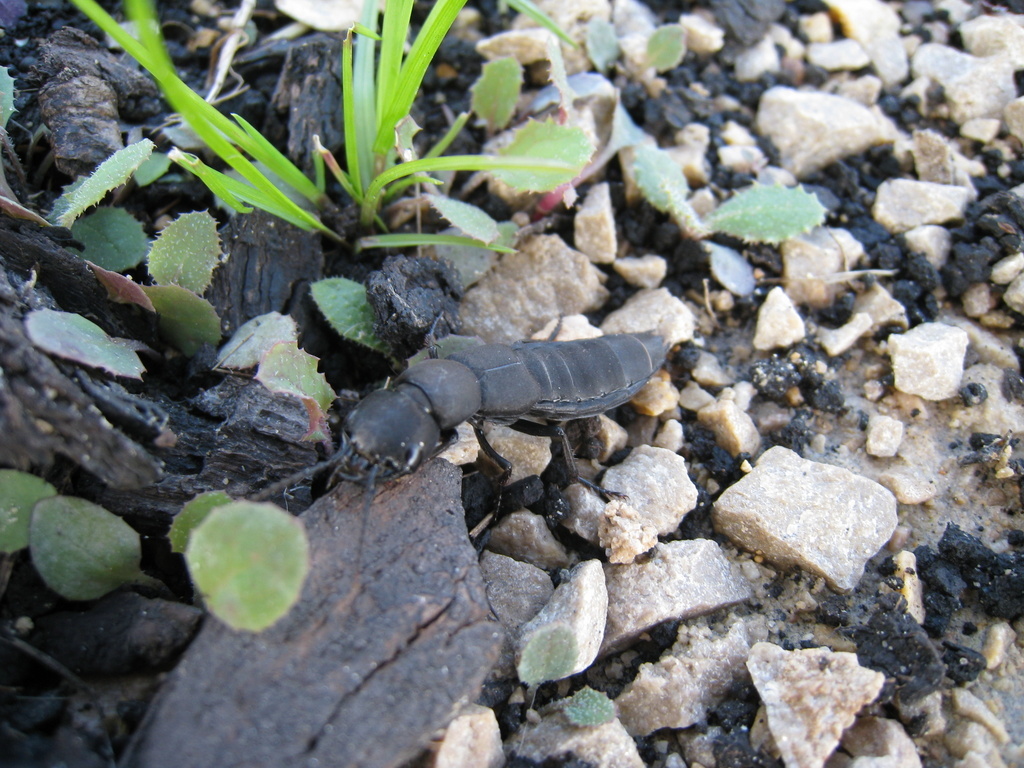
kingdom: Animalia
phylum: Arthropoda
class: Insecta
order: Coleoptera
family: Staphylinidae
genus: Ocypus
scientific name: Ocypus olens
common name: Devil's coach-horse
